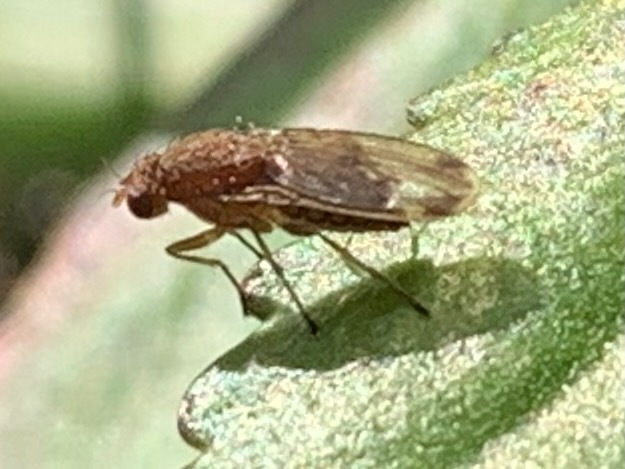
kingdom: Animalia
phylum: Arthropoda
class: Insecta
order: Diptera
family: Heleomyzidae
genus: Suillia
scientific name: Suillia
